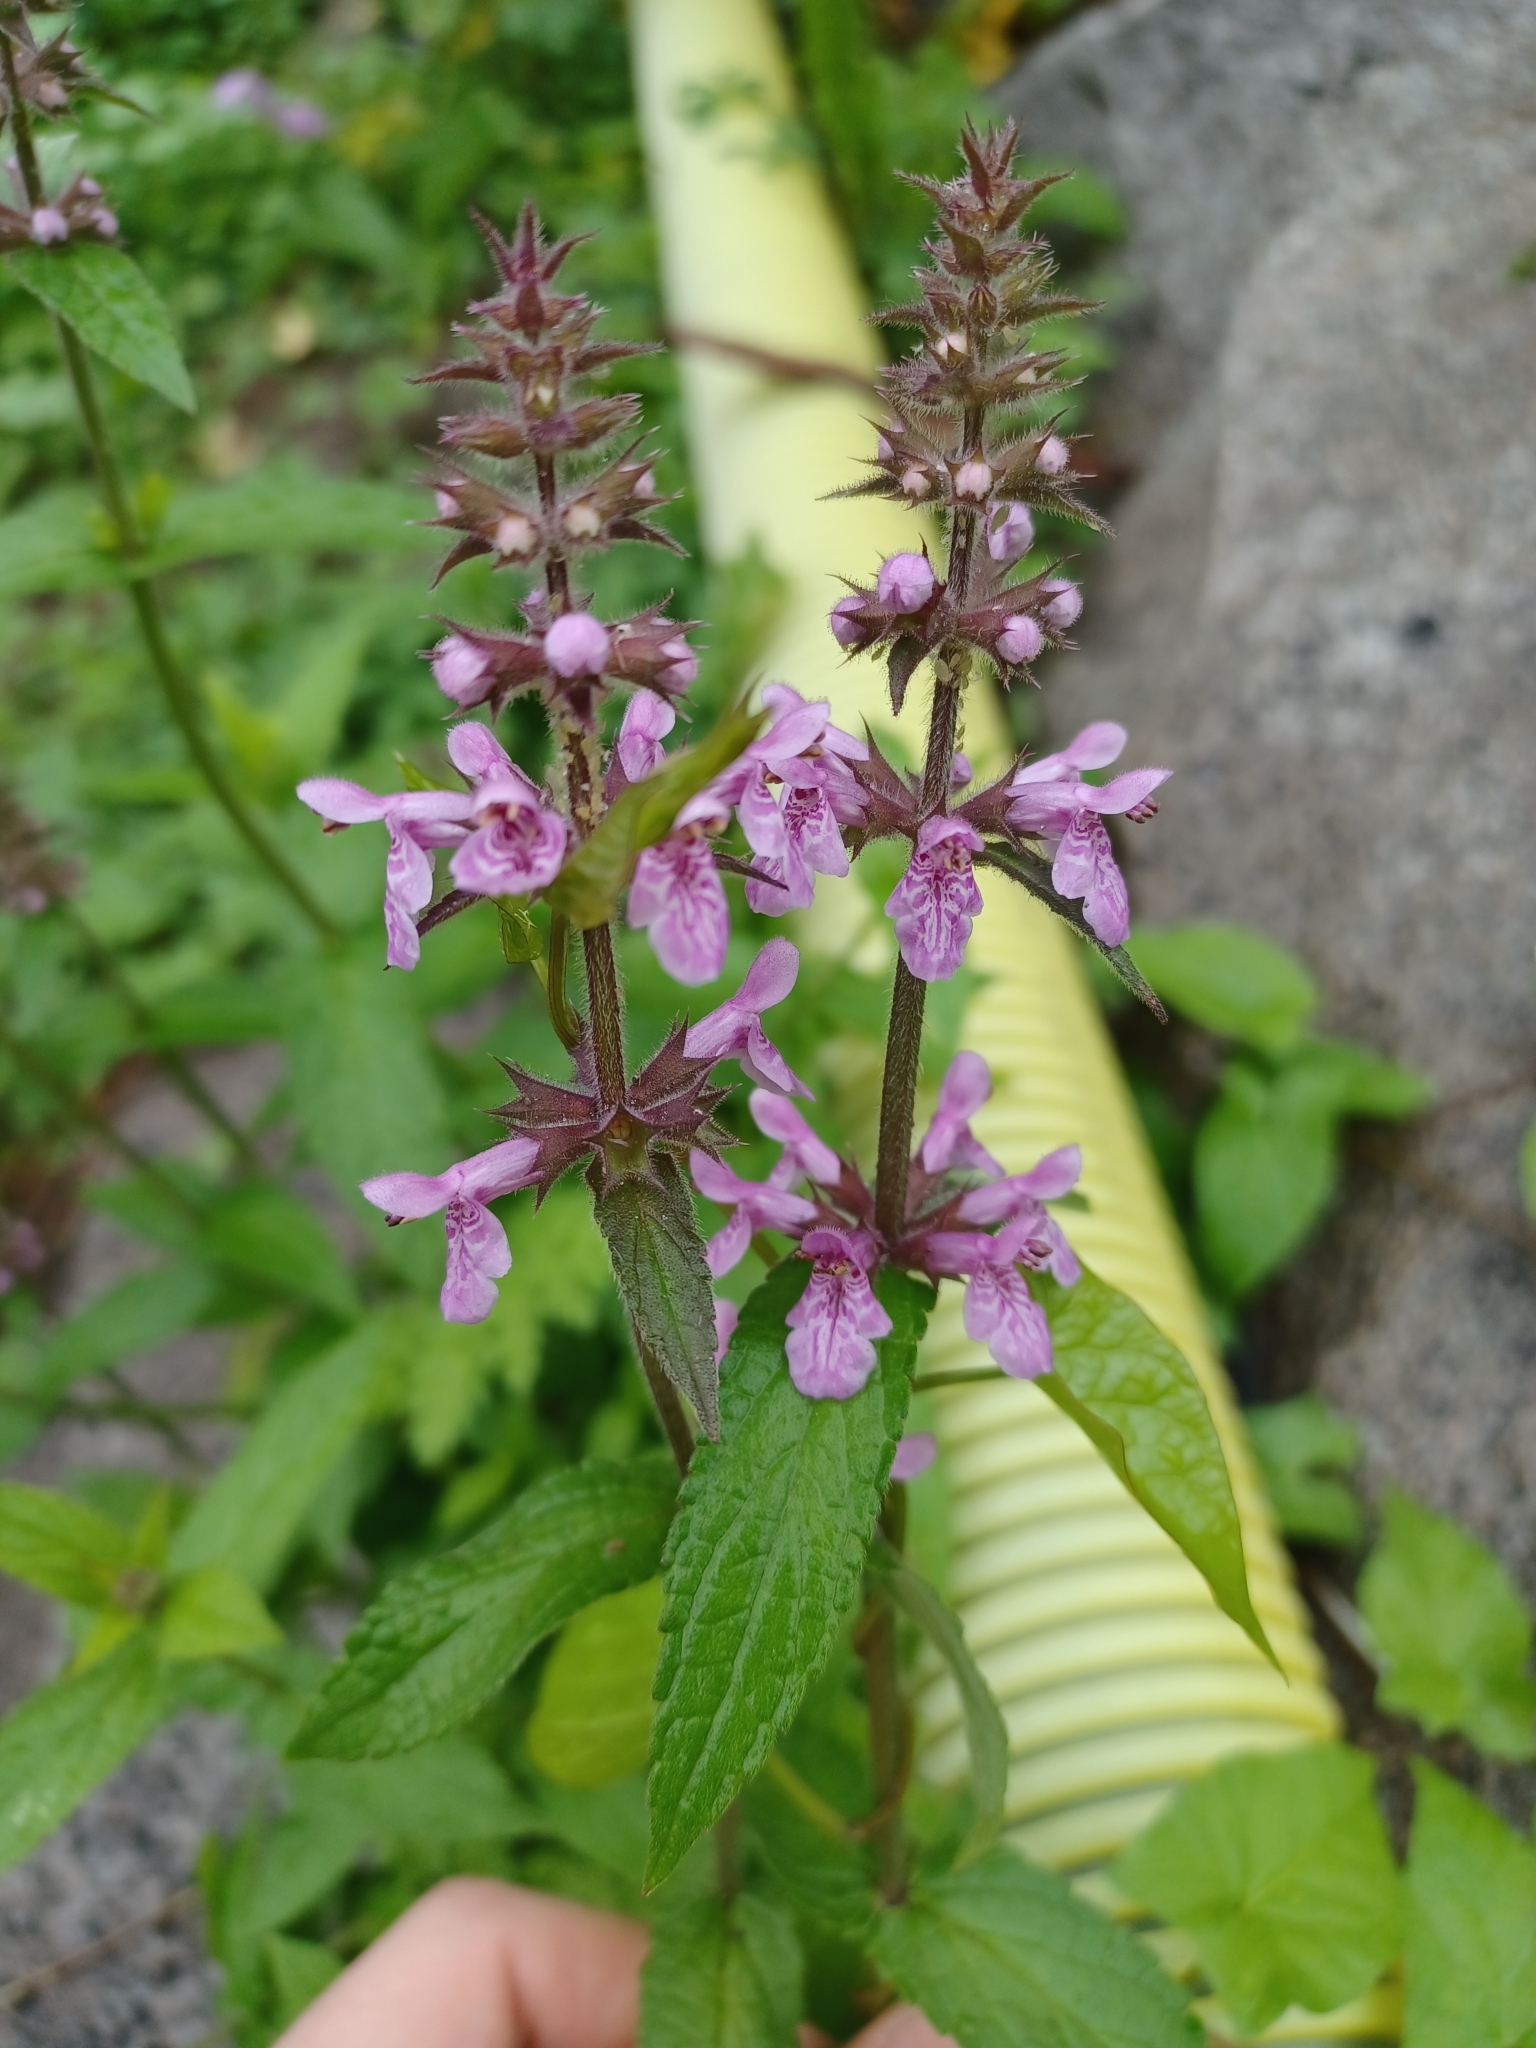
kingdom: Plantae
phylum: Tracheophyta
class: Magnoliopsida
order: Lamiales
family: Lamiaceae
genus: Stachys
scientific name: Stachys palustris
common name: Marsh woundwort
